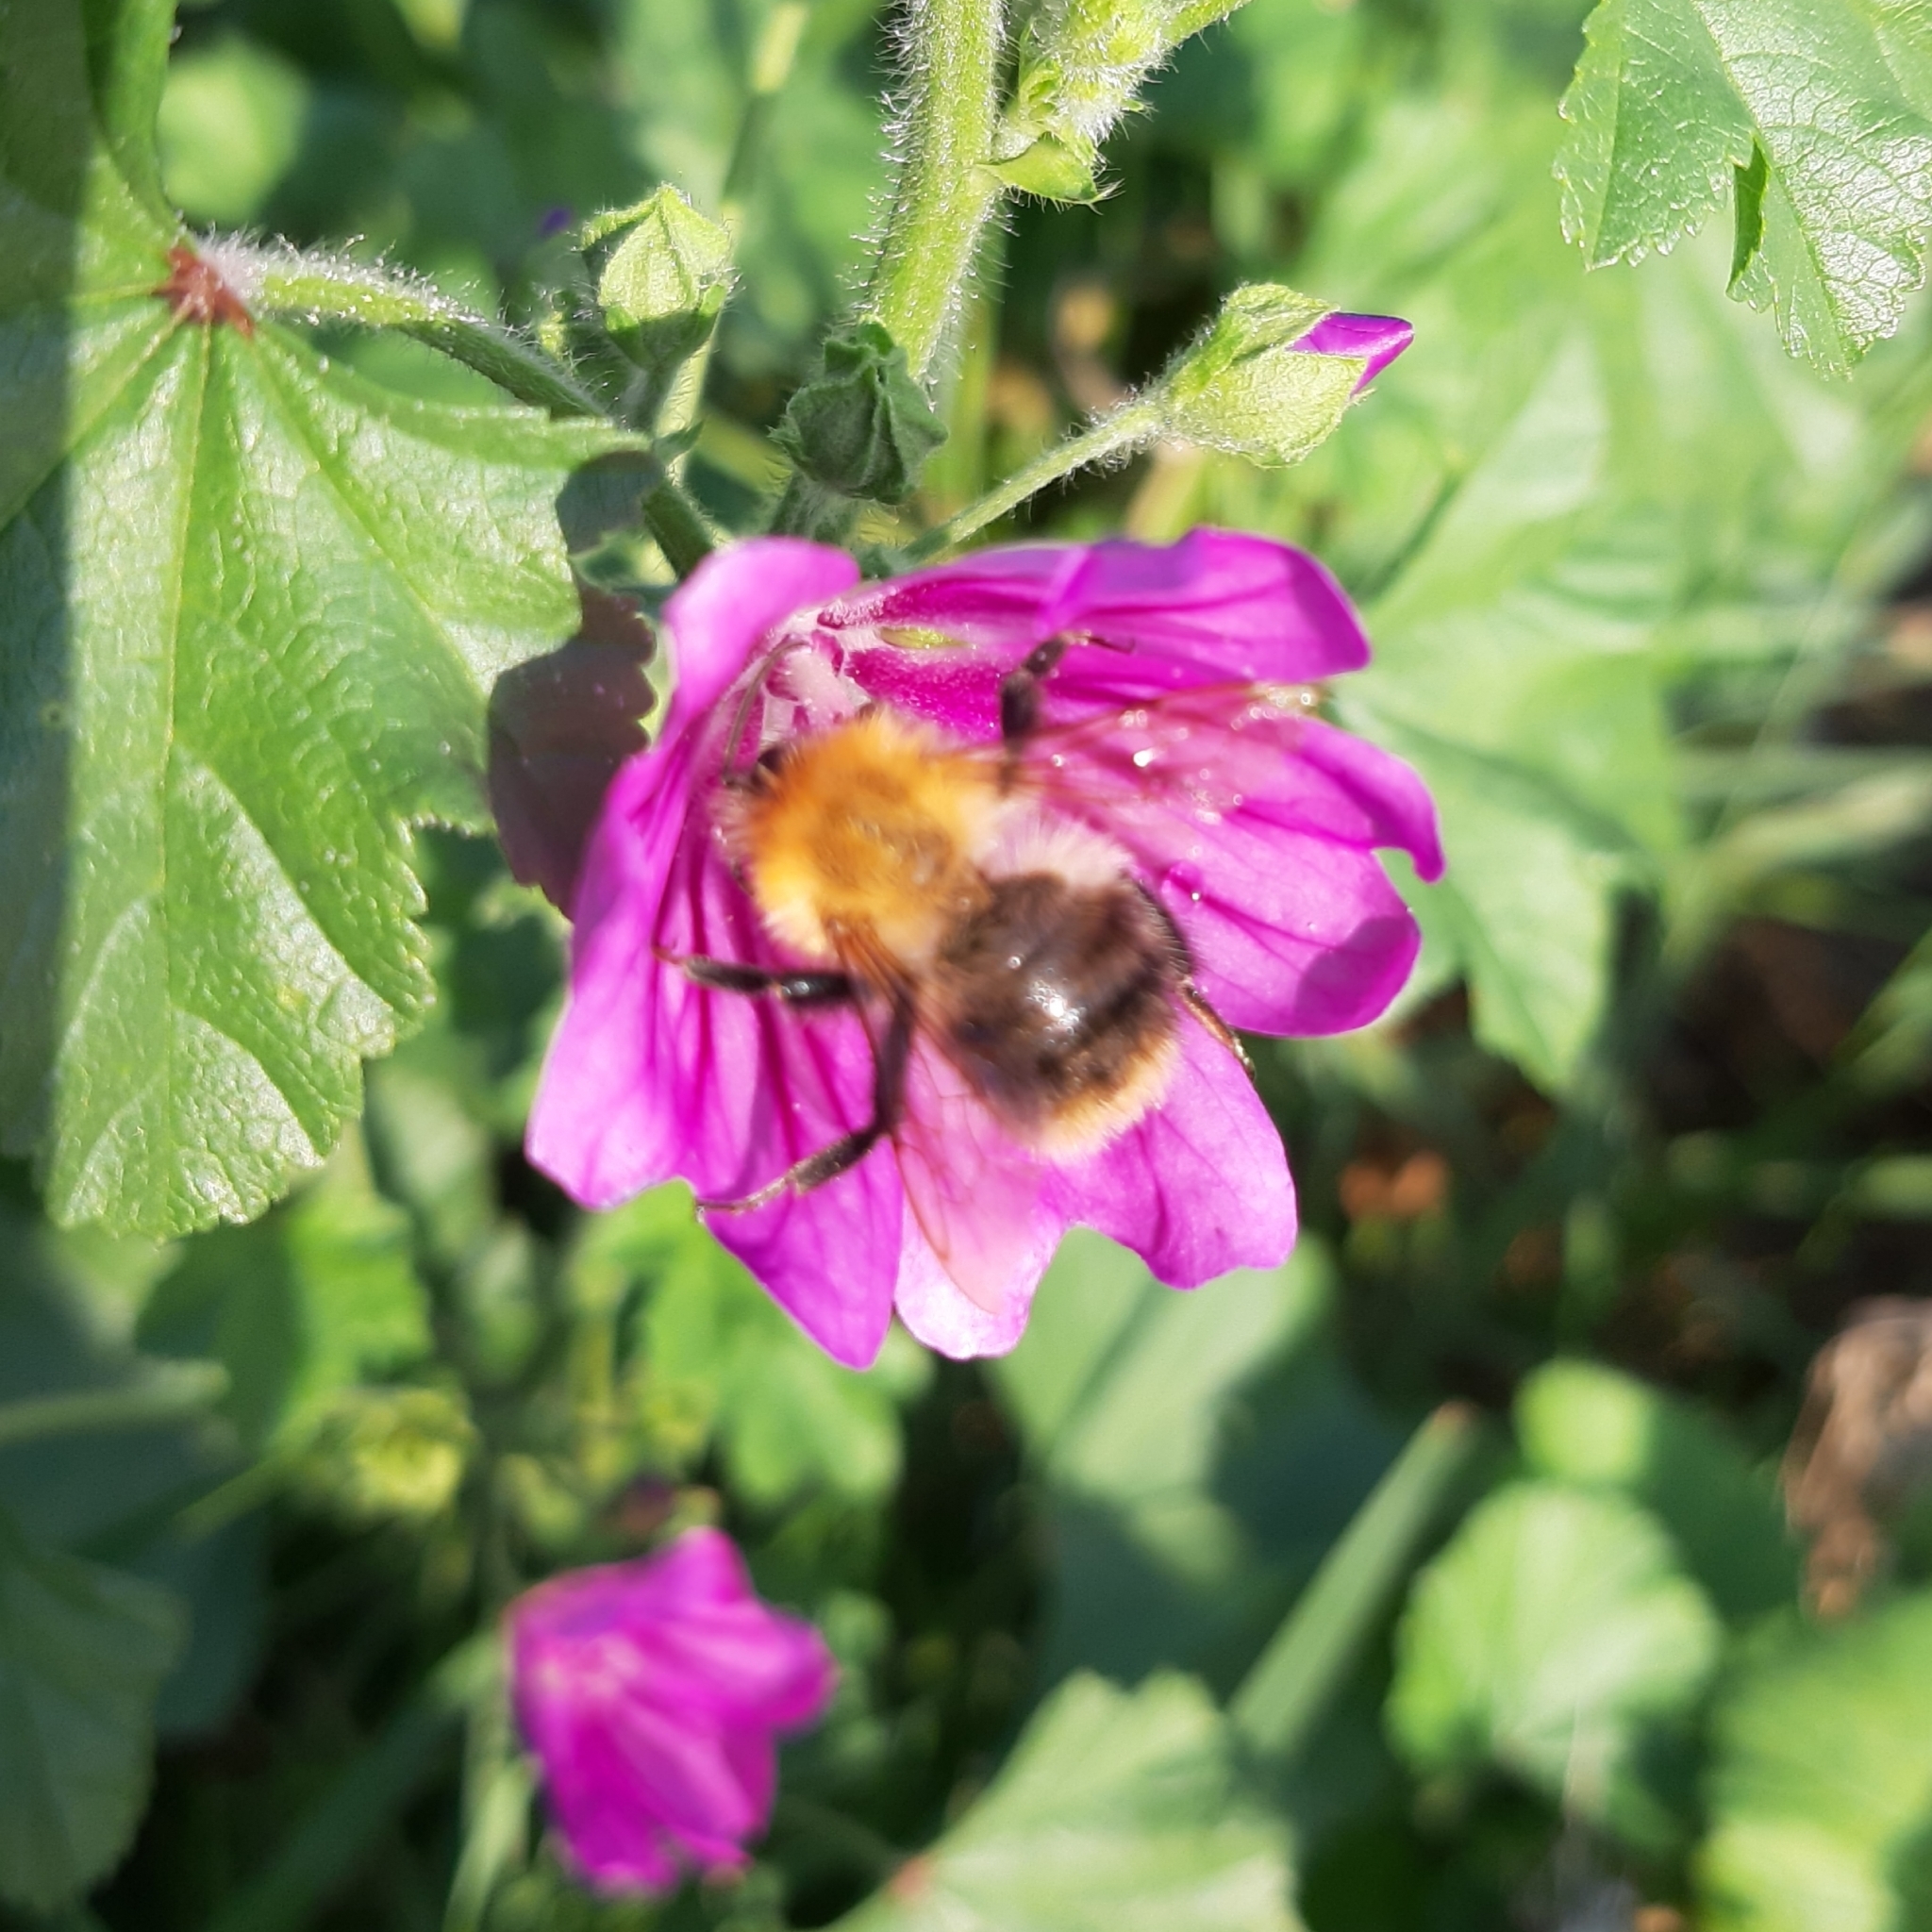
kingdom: Animalia
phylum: Arthropoda
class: Insecta
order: Hymenoptera
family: Apidae
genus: Bombus
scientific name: Bombus pascuorum
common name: Common carder bee
